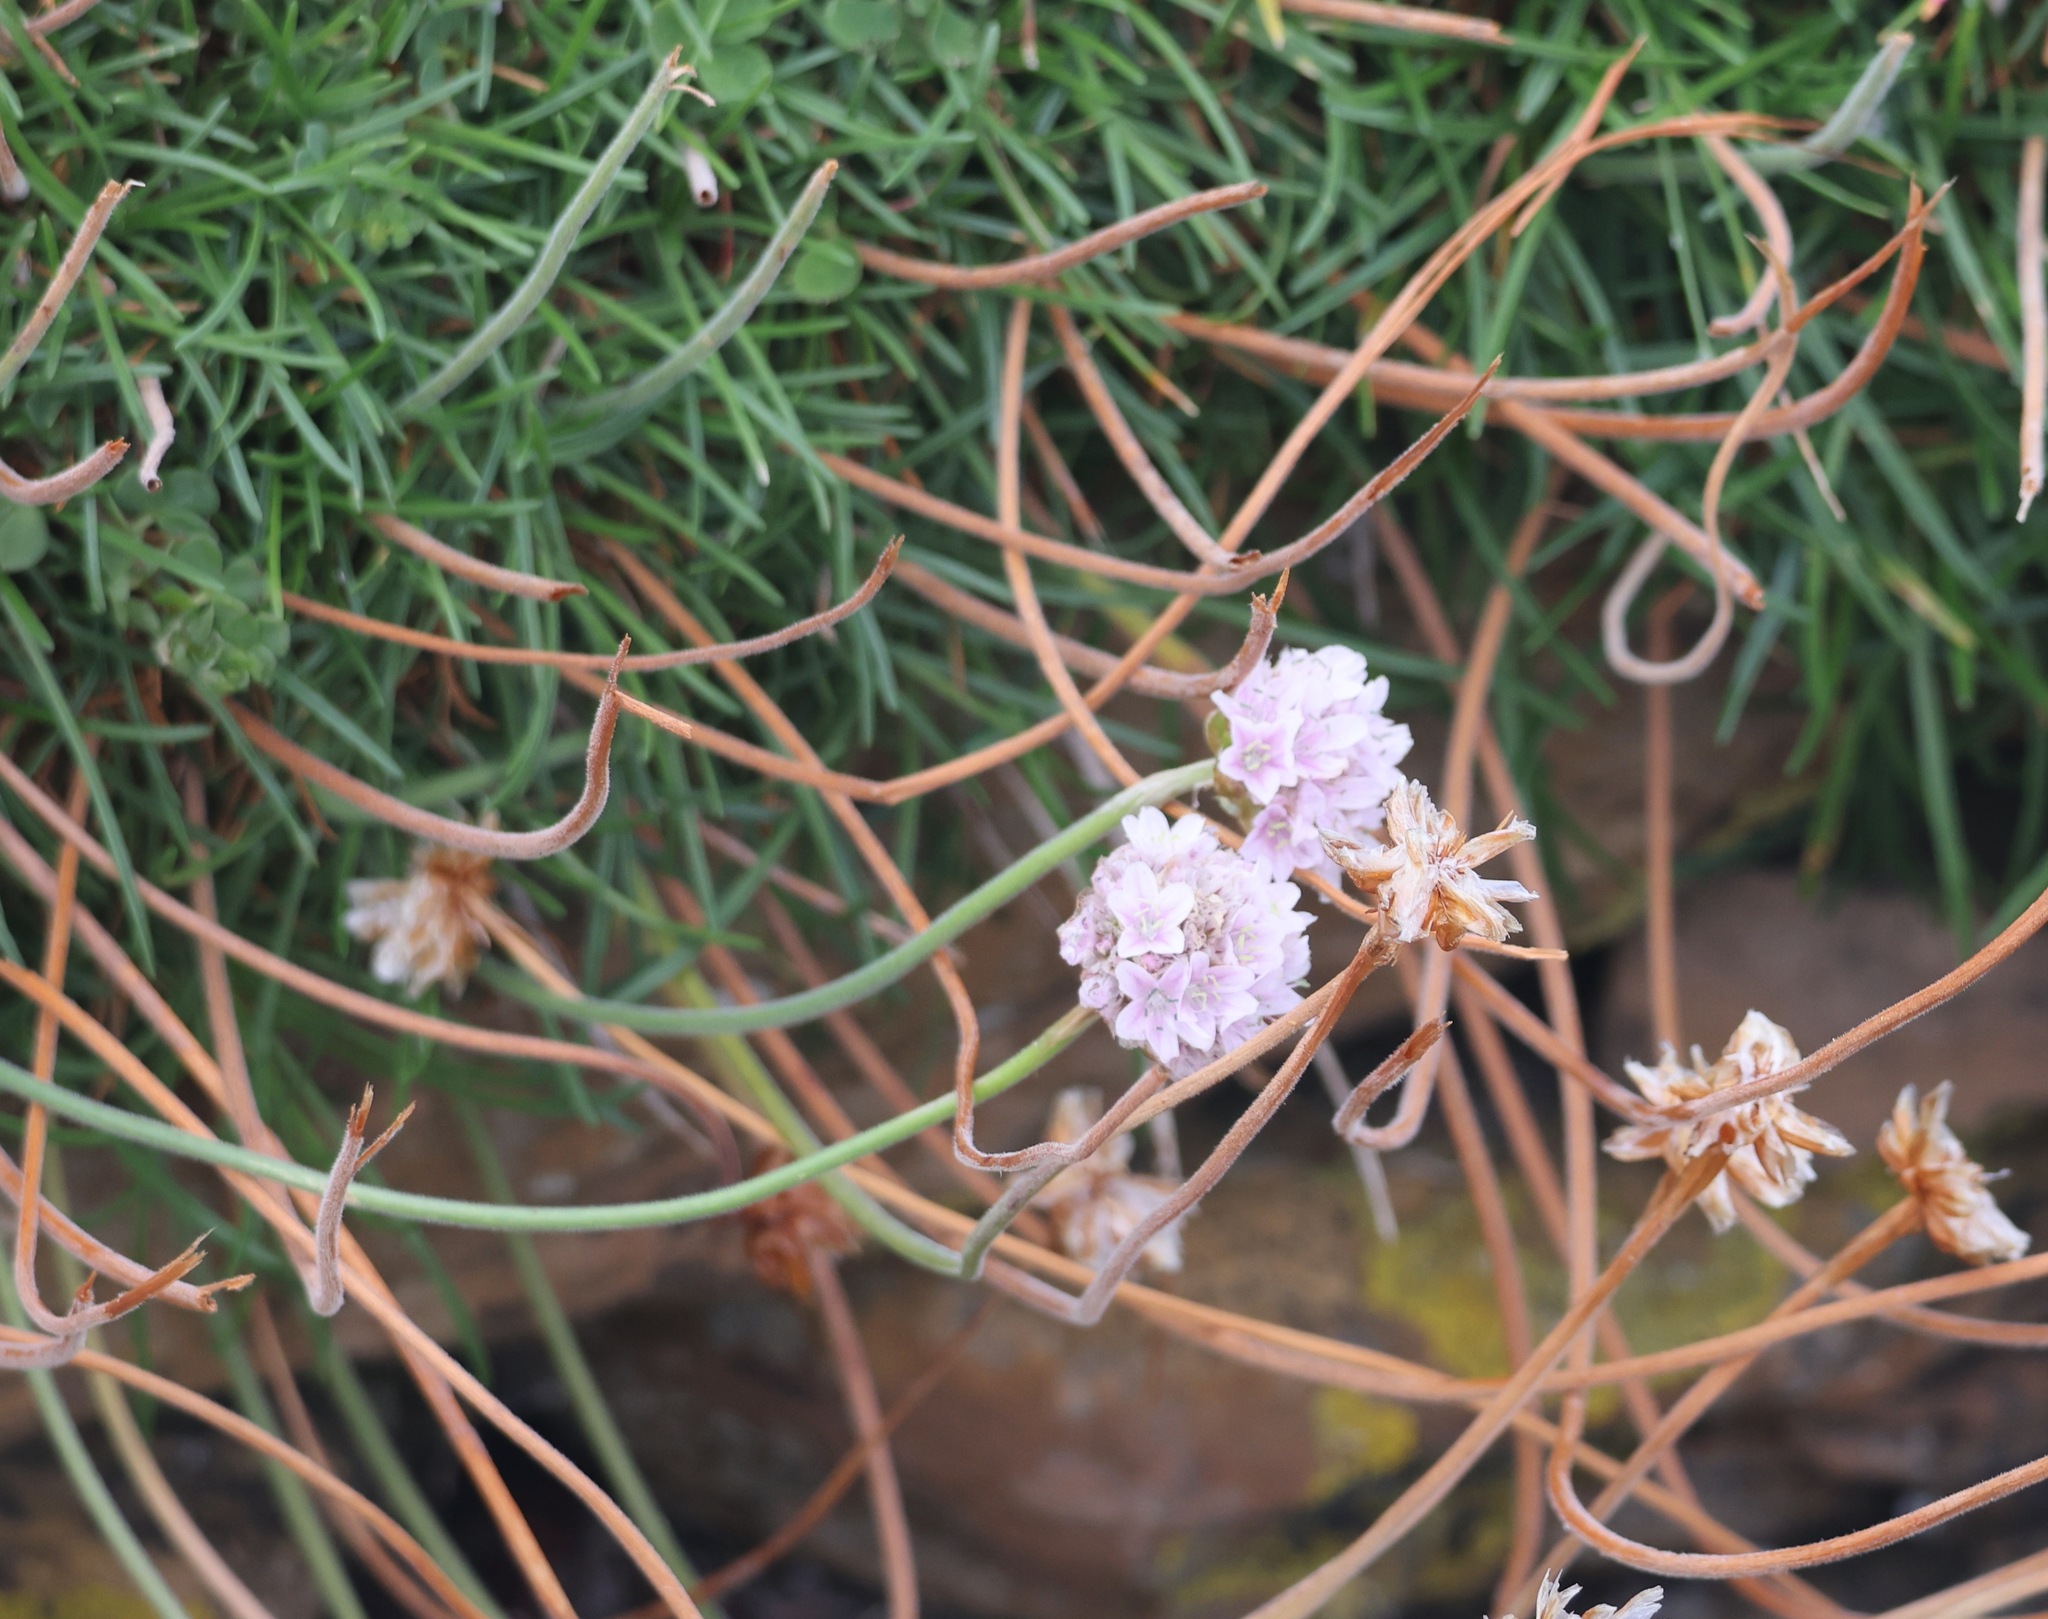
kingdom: Plantae
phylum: Tracheophyta
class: Magnoliopsida
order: Caryophyllales
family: Plumbaginaceae
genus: Armeria
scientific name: Armeria maritima
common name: Thrift
